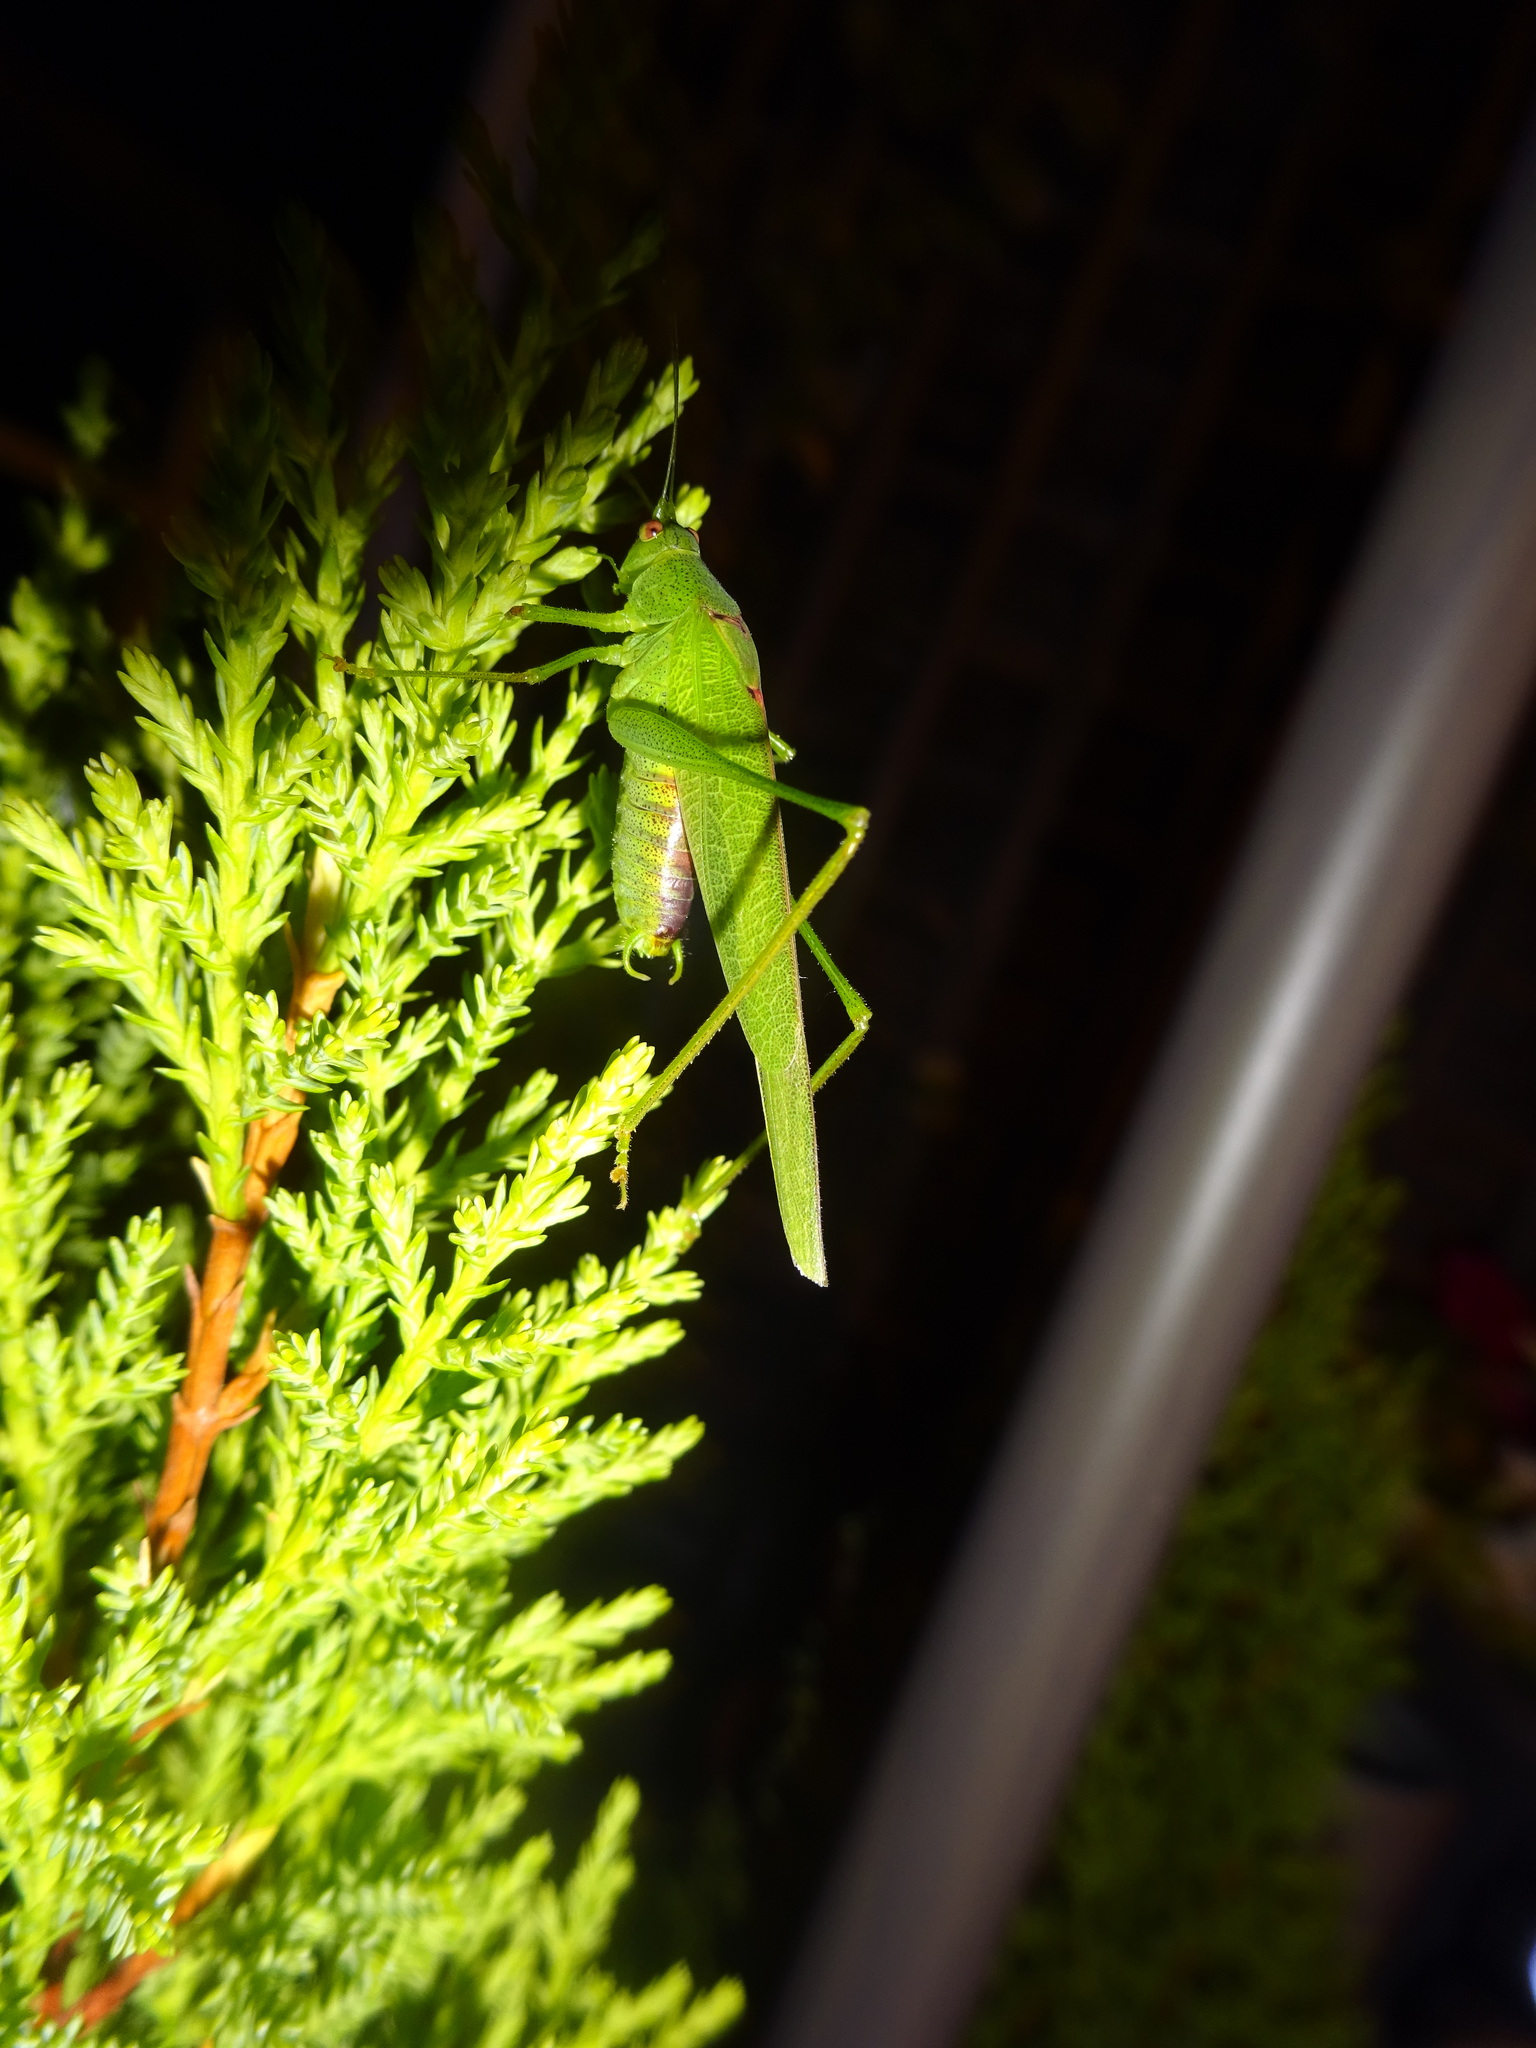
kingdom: Animalia
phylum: Arthropoda
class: Insecta
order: Orthoptera
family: Tettigoniidae
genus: Phaneroptera
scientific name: Phaneroptera nana
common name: Southern sickle bush-cricket
